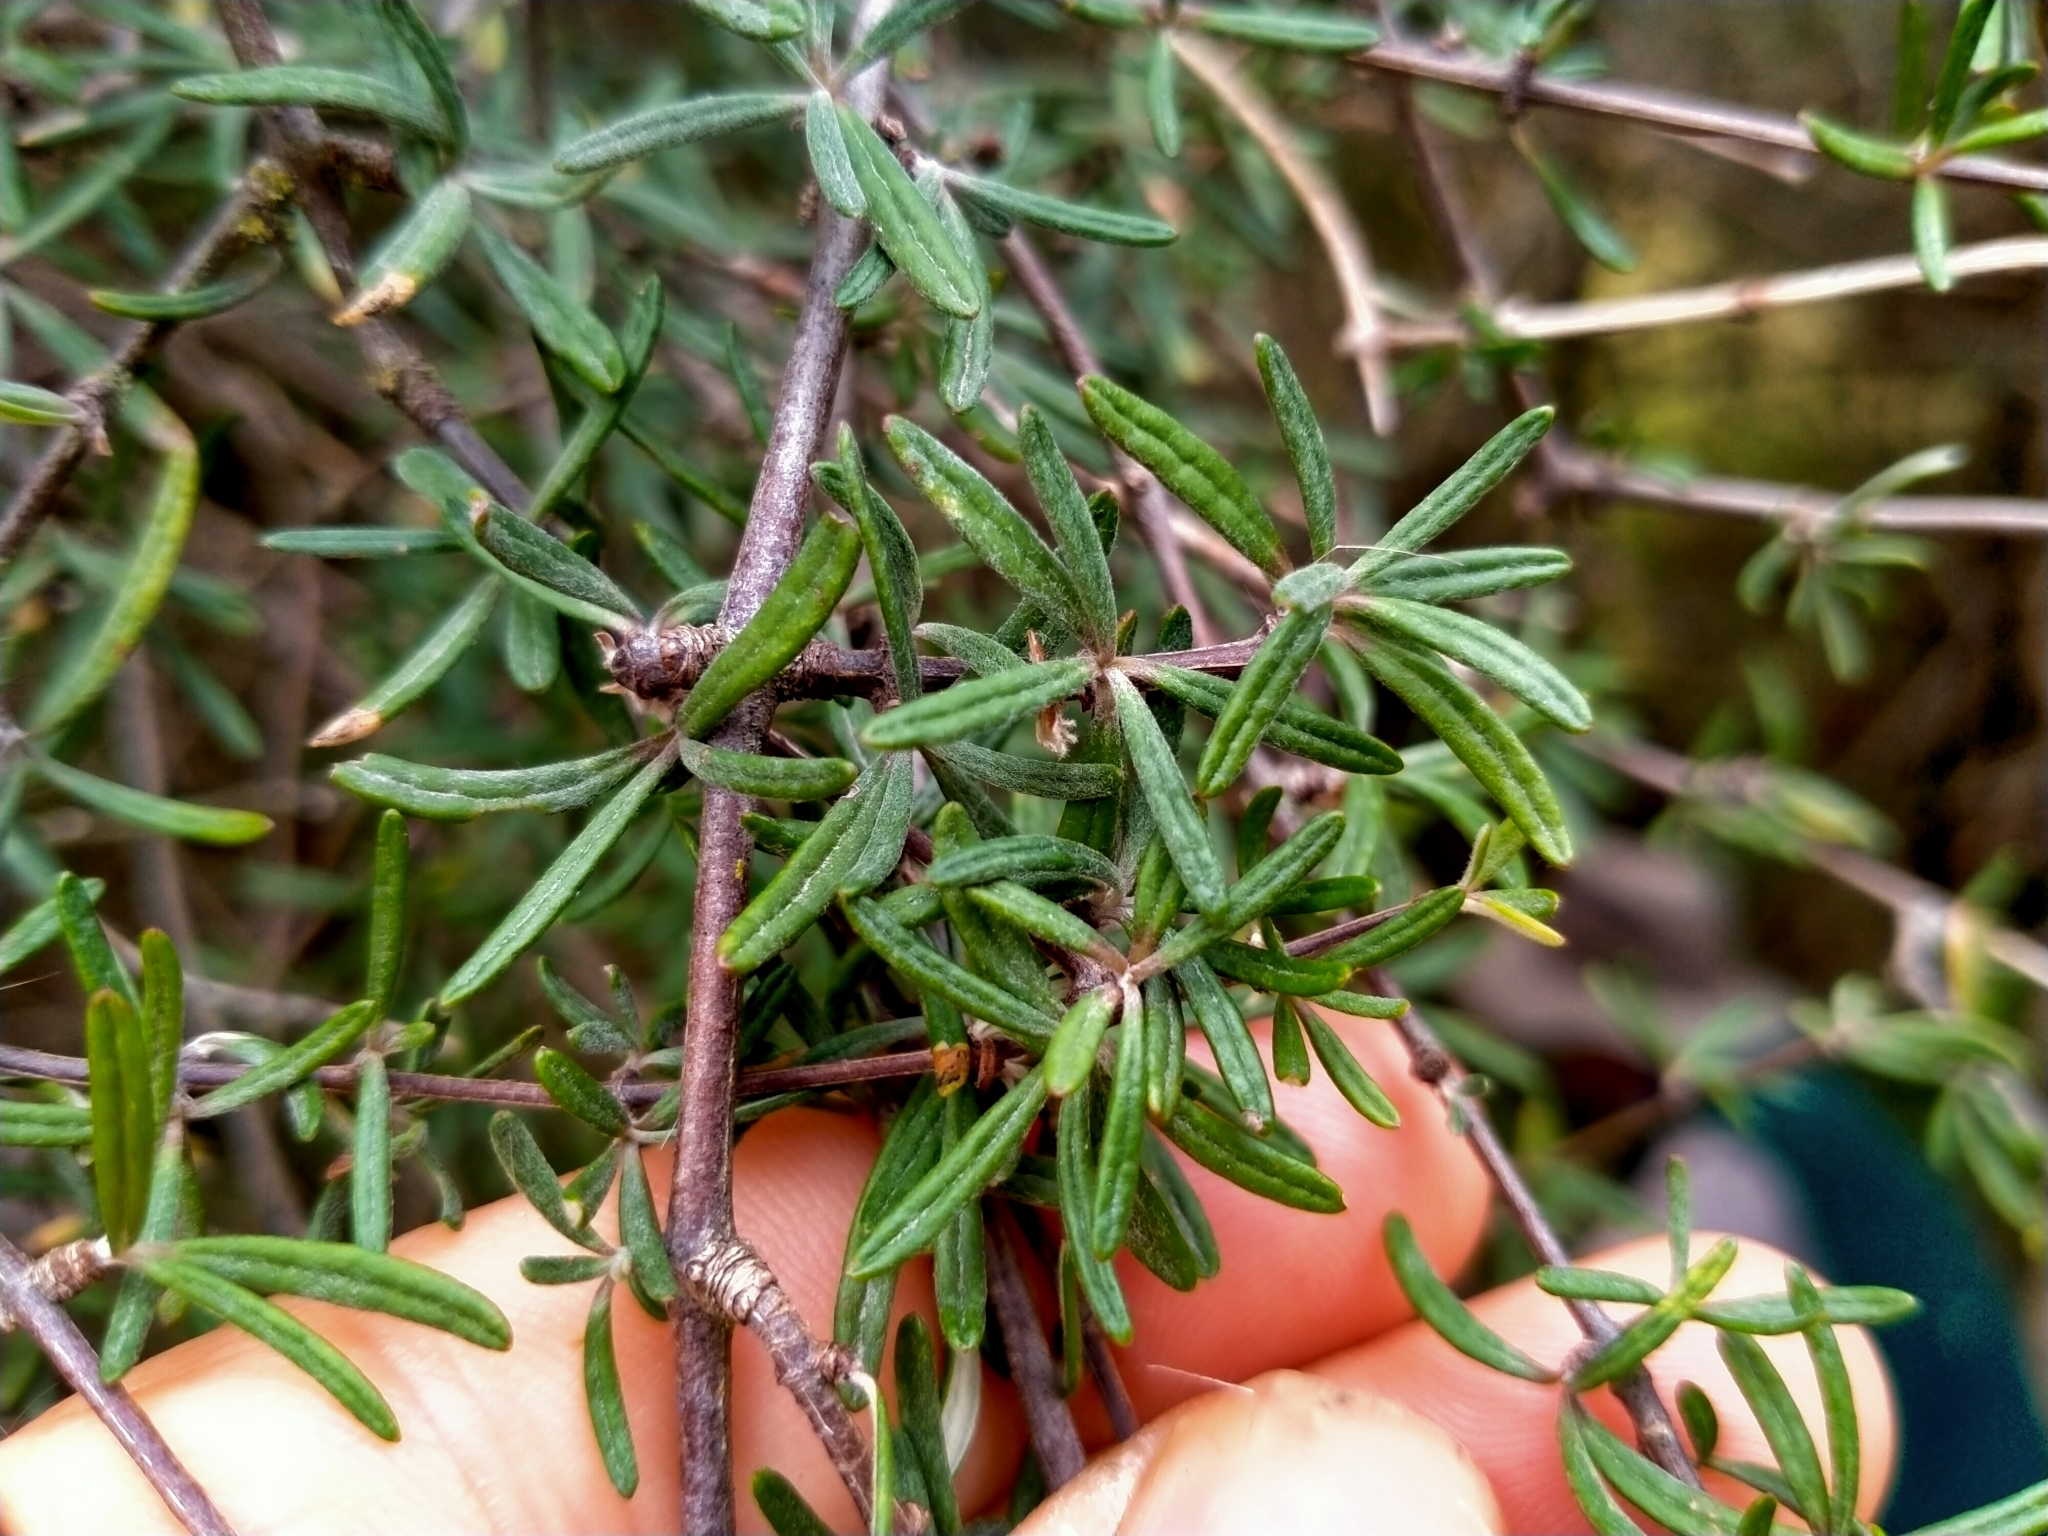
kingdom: Plantae
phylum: Tracheophyta
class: Magnoliopsida
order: Asterales
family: Asteraceae
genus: Olearia
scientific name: Olearia bullata
